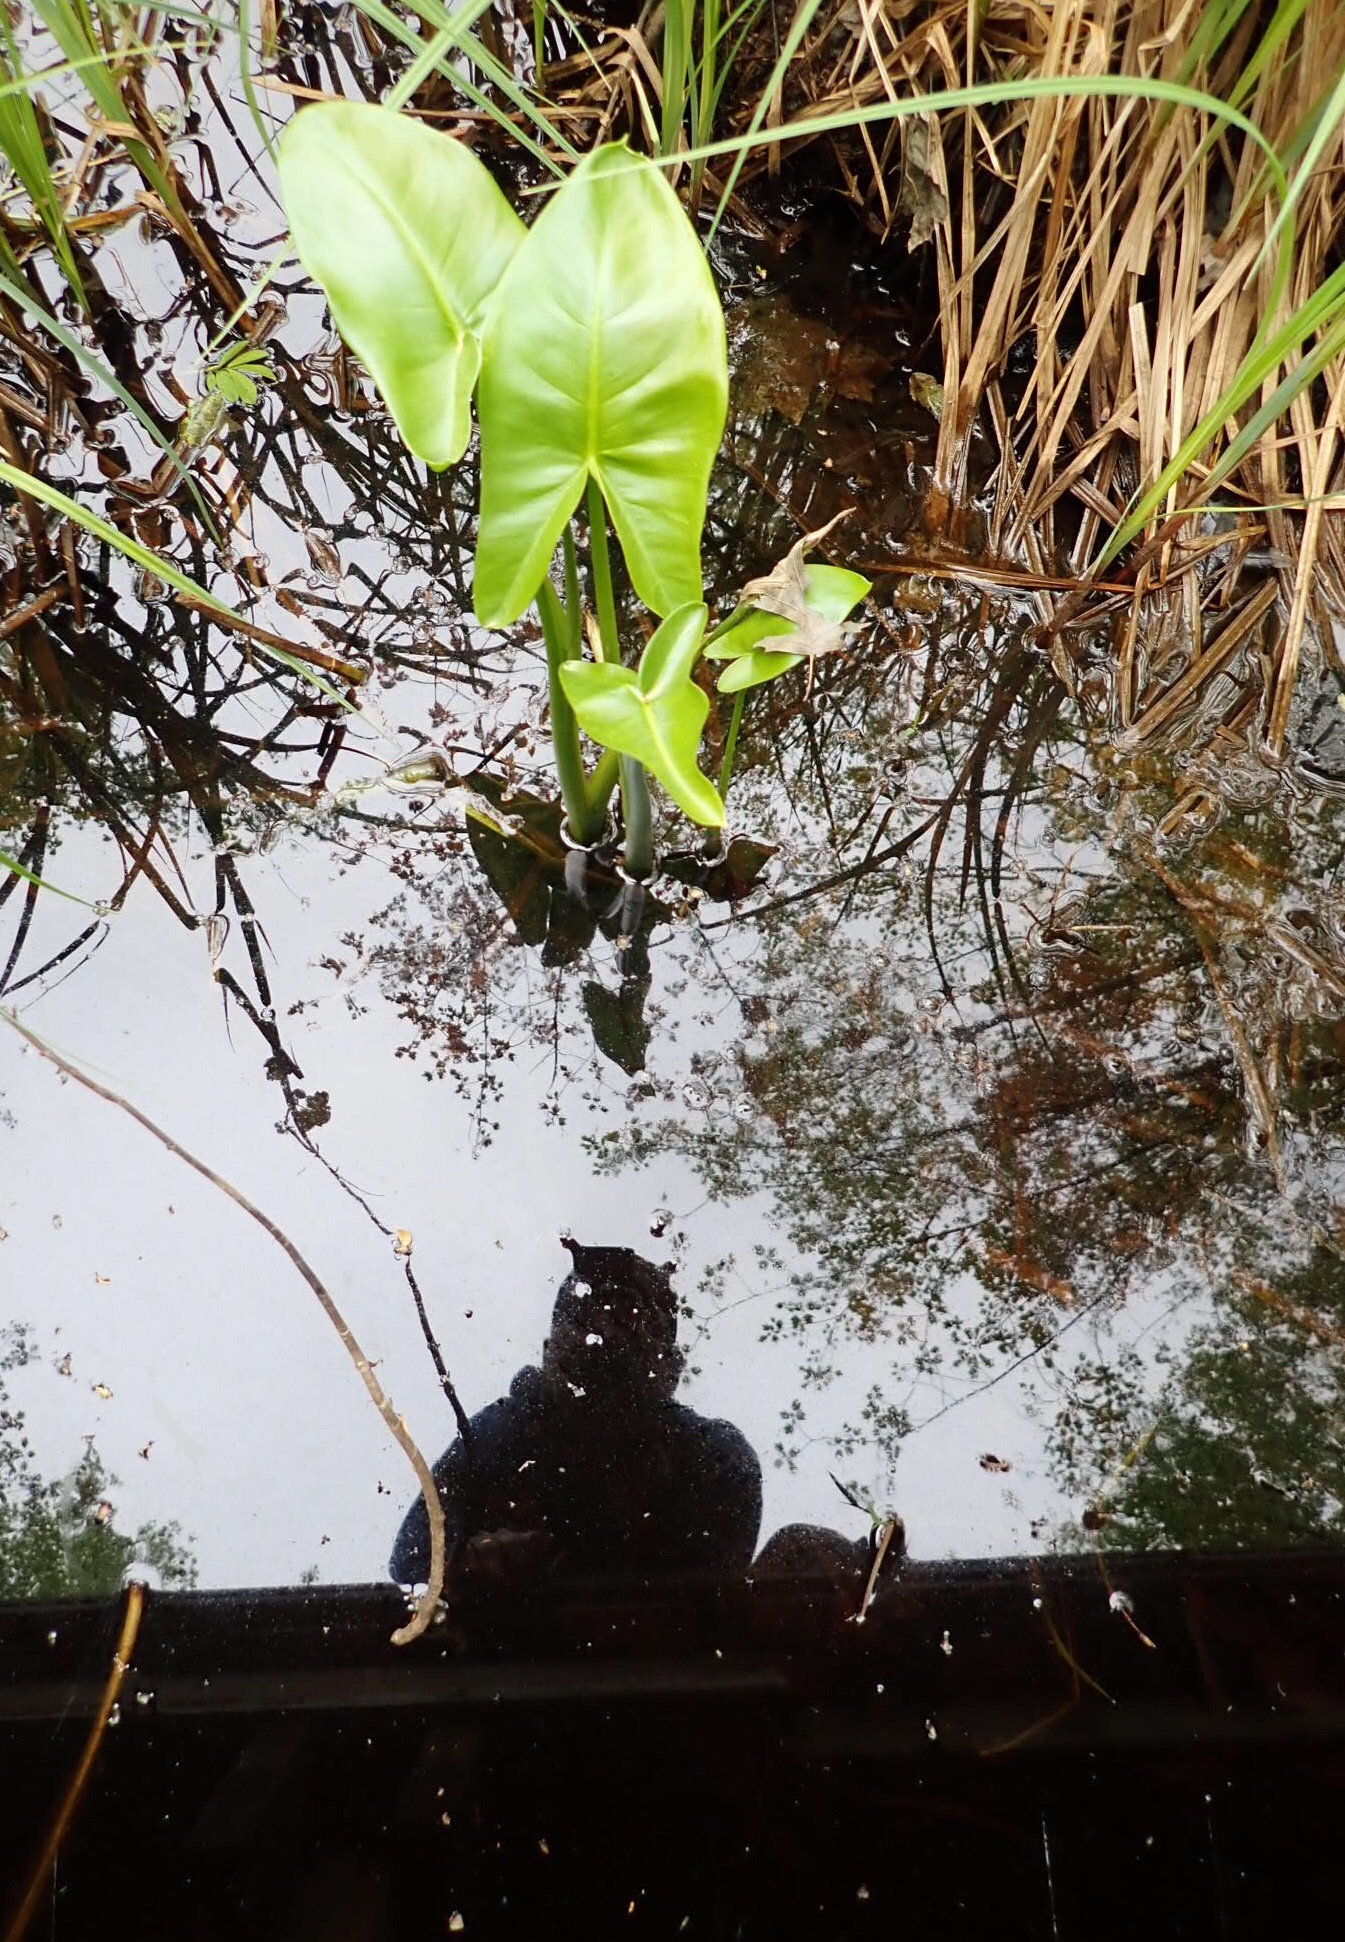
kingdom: Plantae
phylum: Tracheophyta
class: Liliopsida
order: Alismatales
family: Araceae
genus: Peltandra
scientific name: Peltandra virginica
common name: Arrow arum
